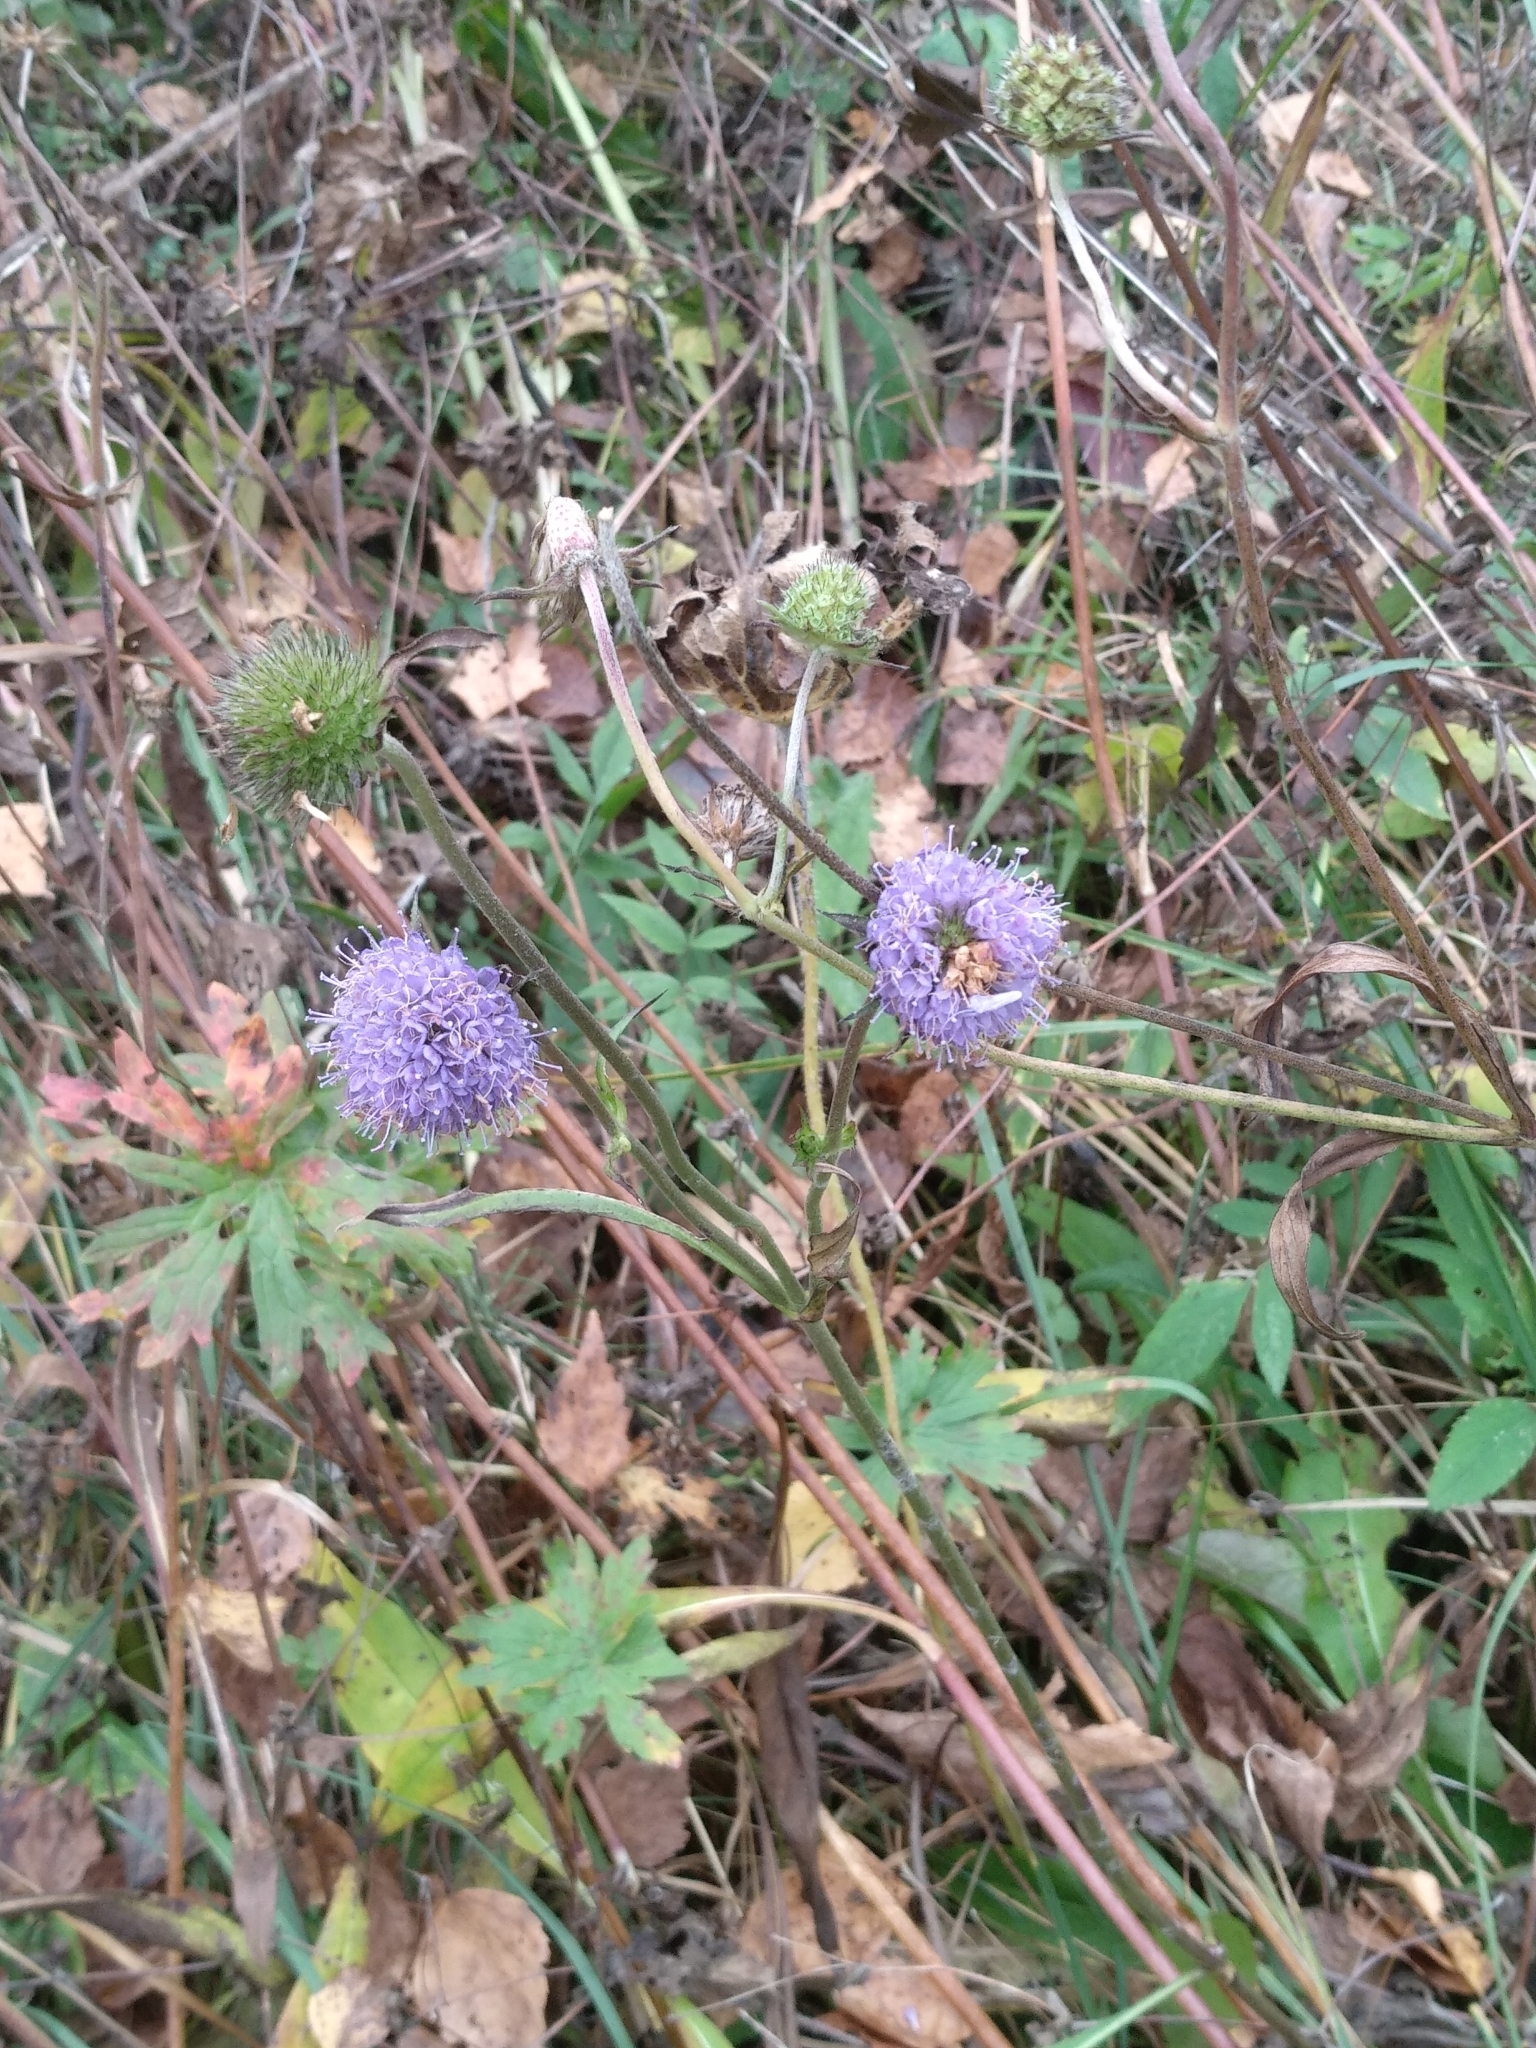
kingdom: Plantae
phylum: Tracheophyta
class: Magnoliopsida
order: Dipsacales
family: Caprifoliaceae
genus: Succisa
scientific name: Succisa pratensis
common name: Devil's-bit
